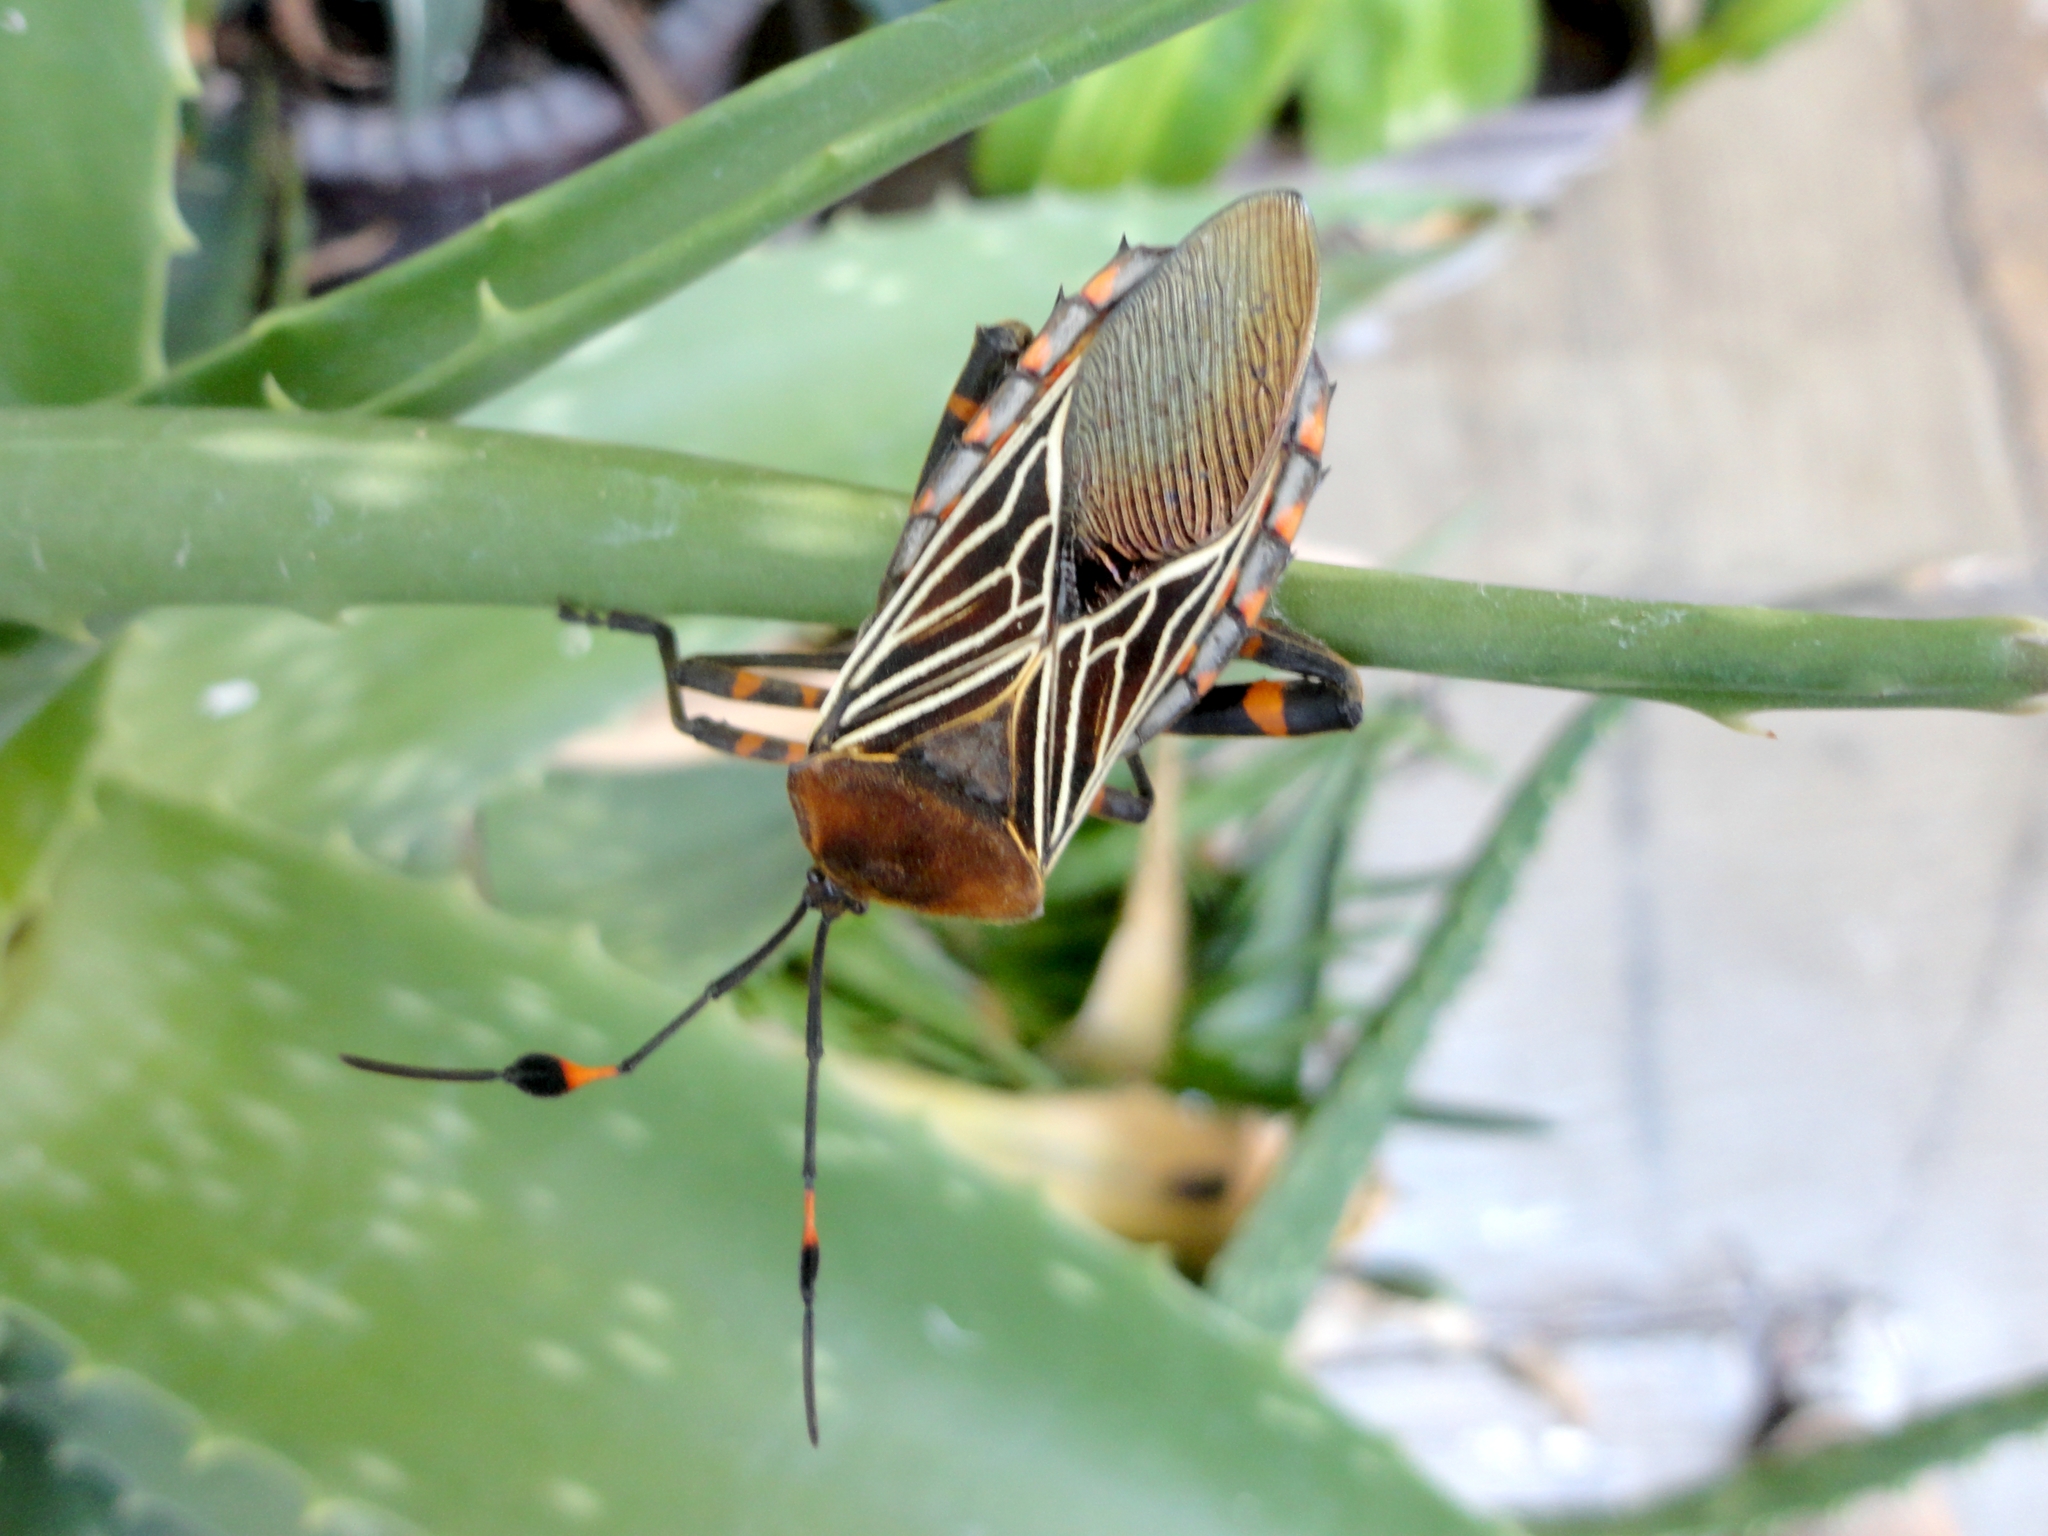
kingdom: Animalia
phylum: Arthropoda
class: Insecta
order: Hemiptera
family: Coreidae
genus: Thasus
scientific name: Thasus
